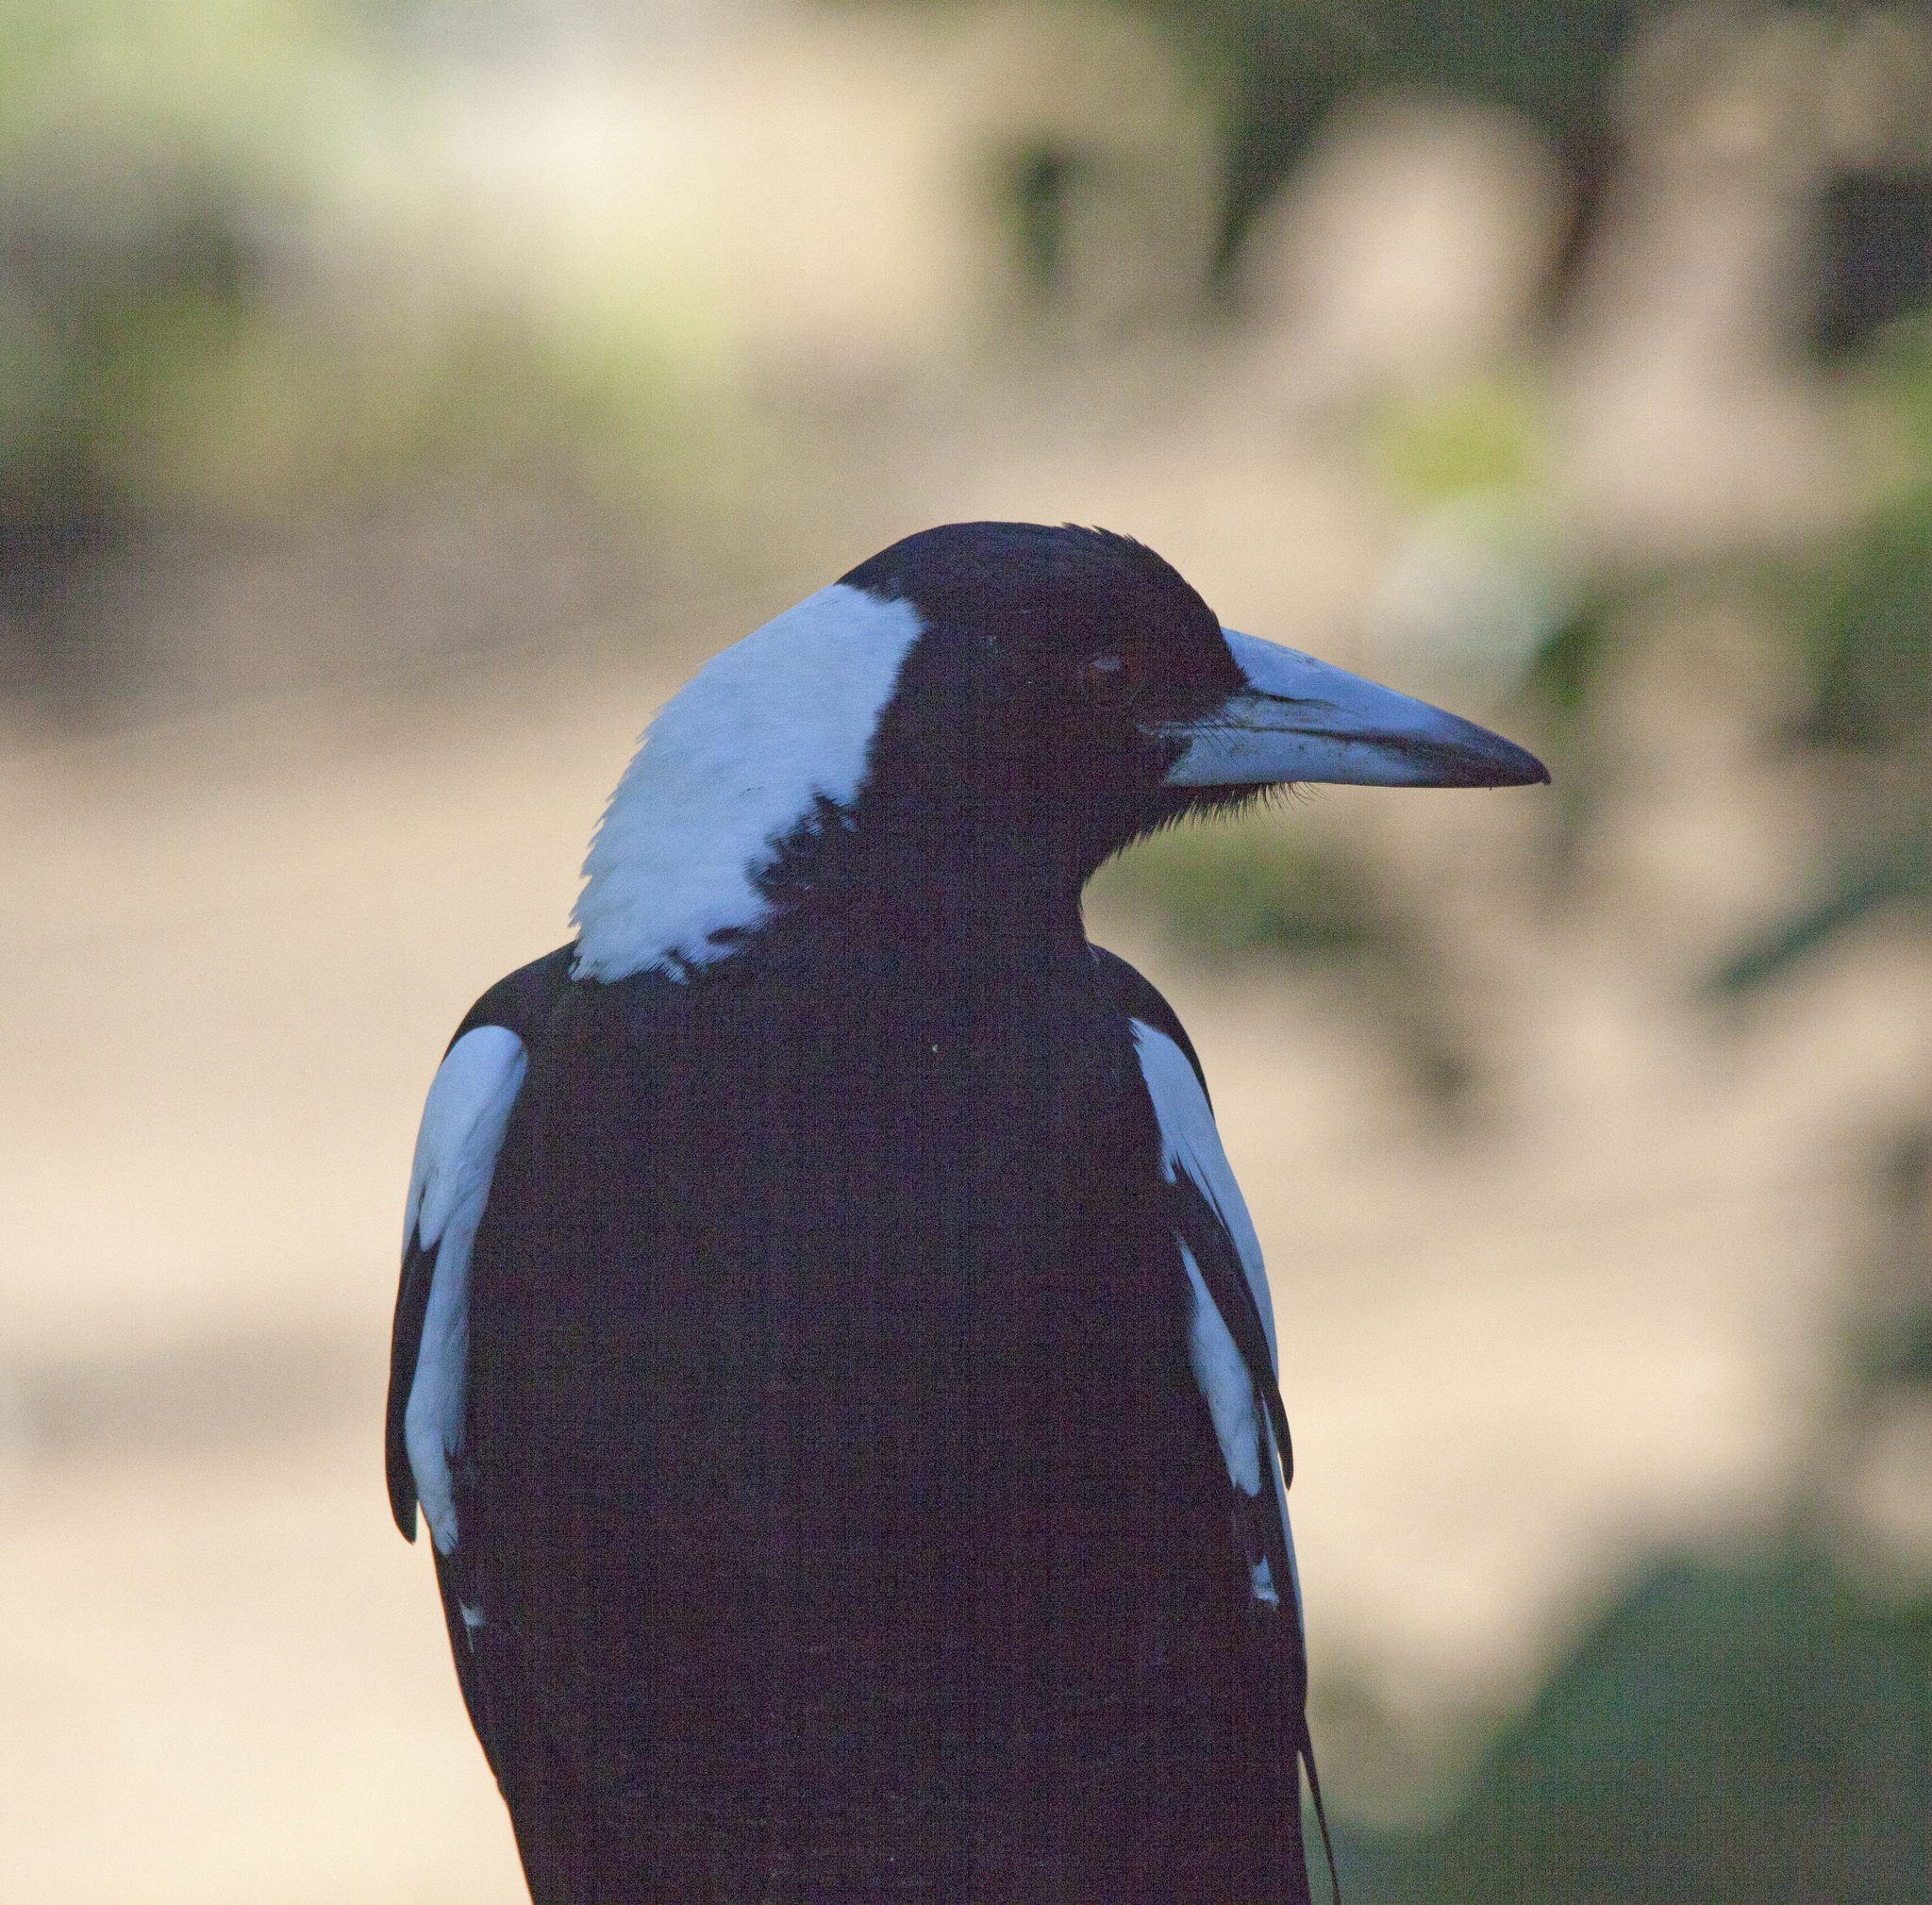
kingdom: Animalia
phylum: Chordata
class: Aves
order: Passeriformes
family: Cracticidae
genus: Gymnorhina
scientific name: Gymnorhina tibicen
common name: Australian magpie
